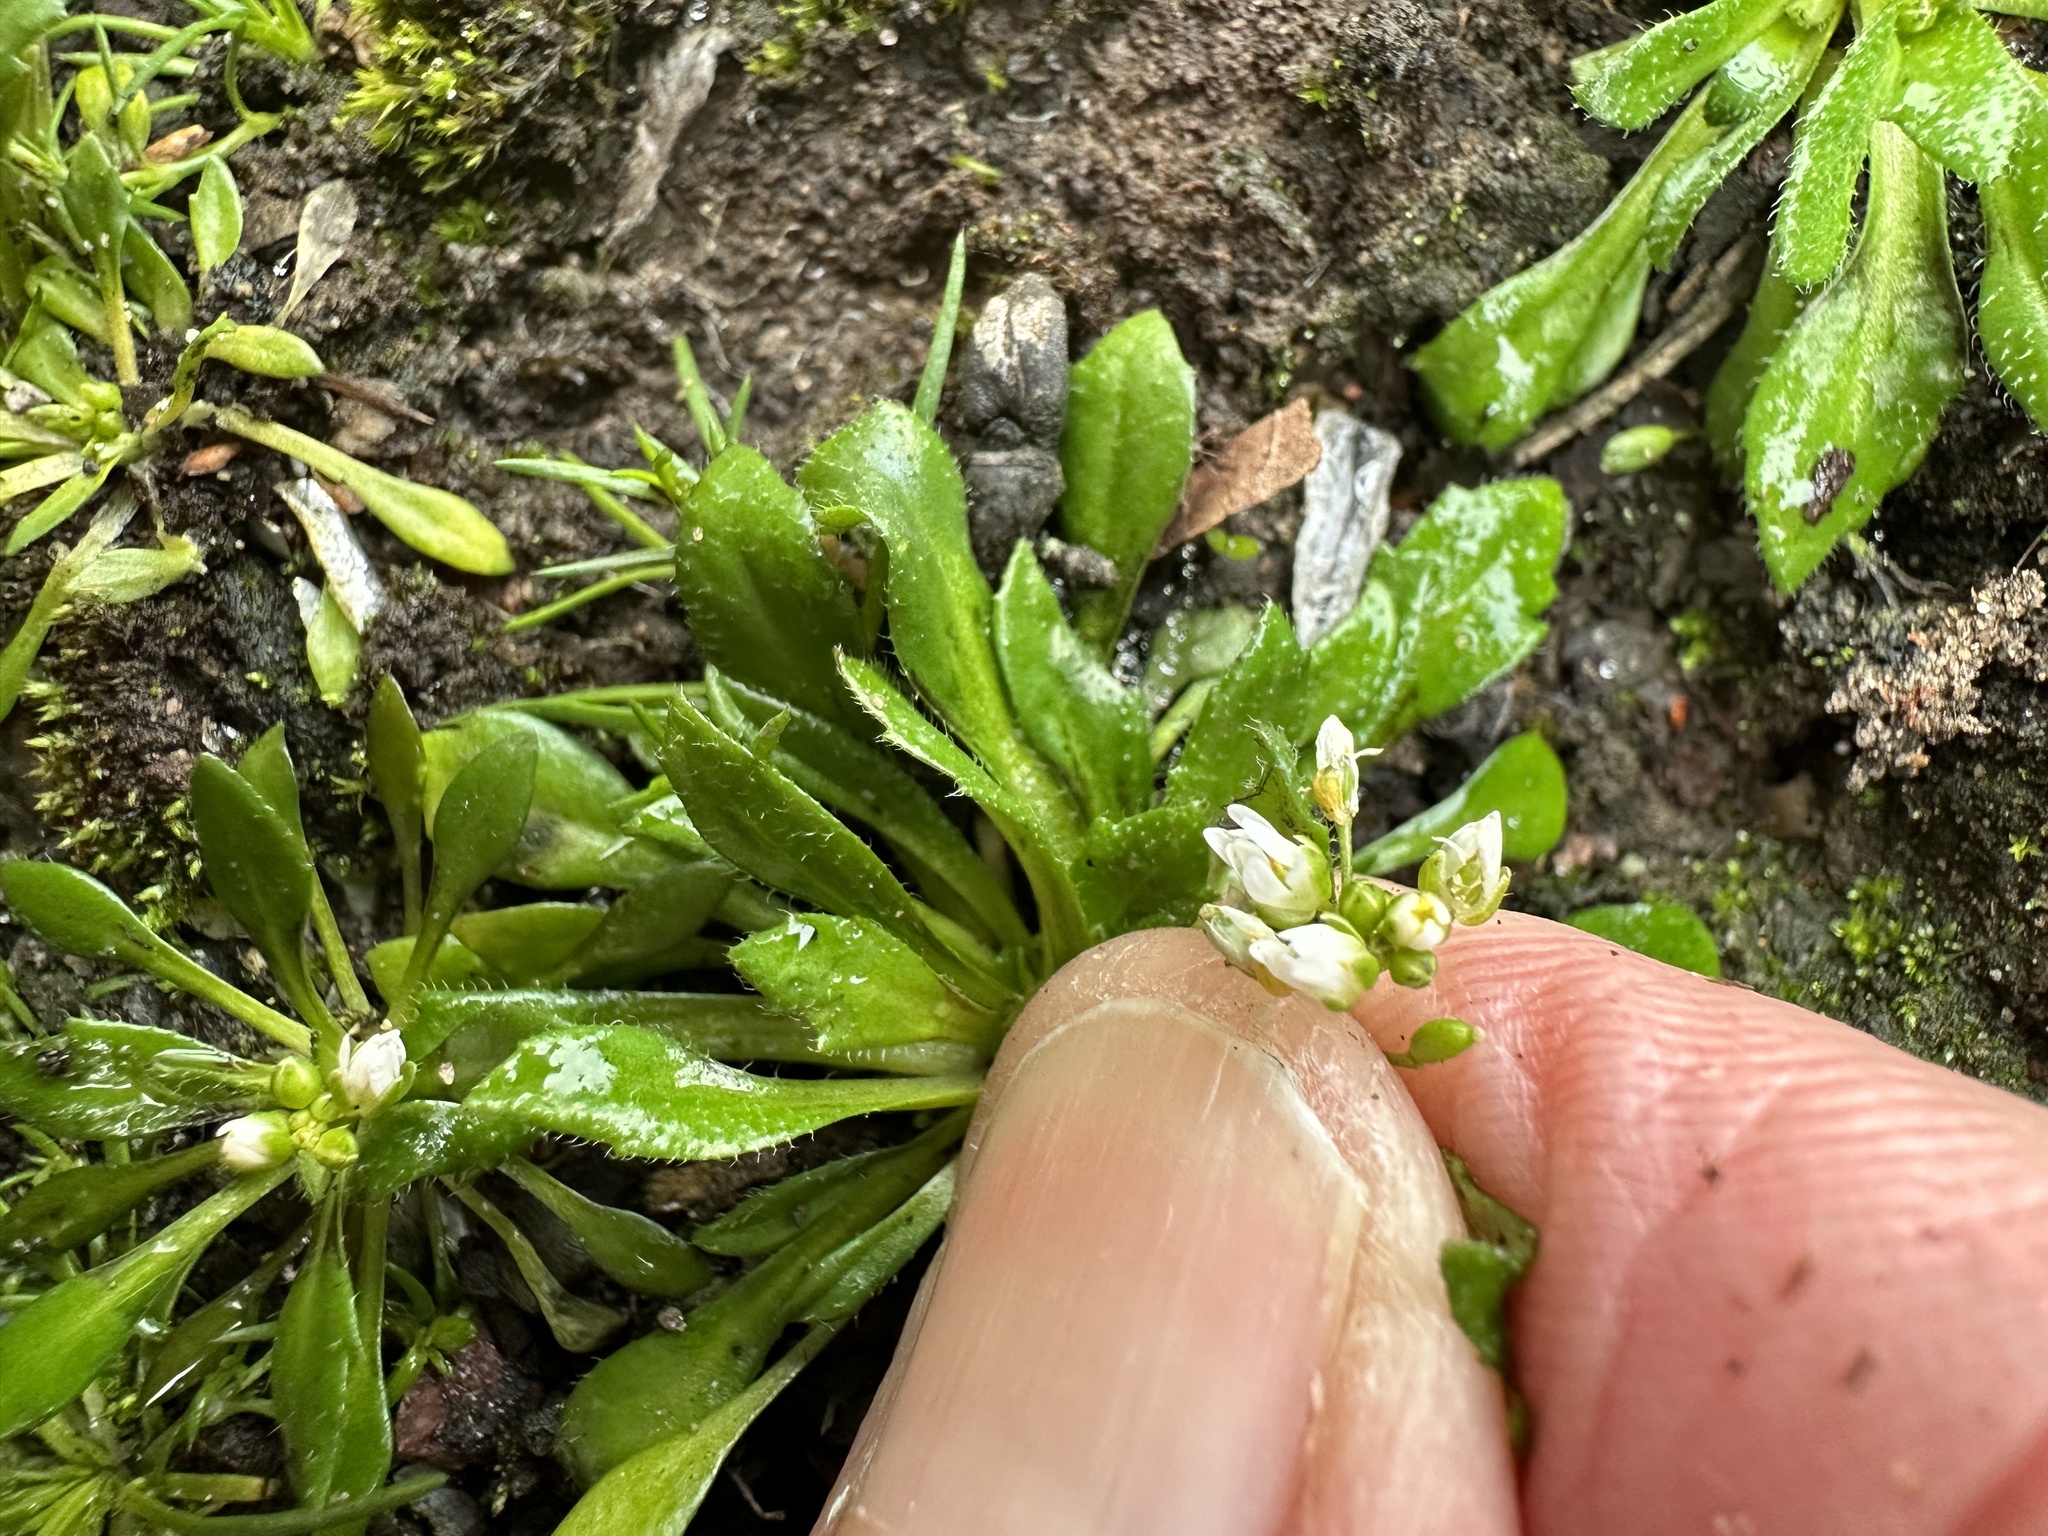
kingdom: Plantae
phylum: Tracheophyta
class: Magnoliopsida
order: Brassicales
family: Brassicaceae
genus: Draba
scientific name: Draba verna
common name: Spring draba
